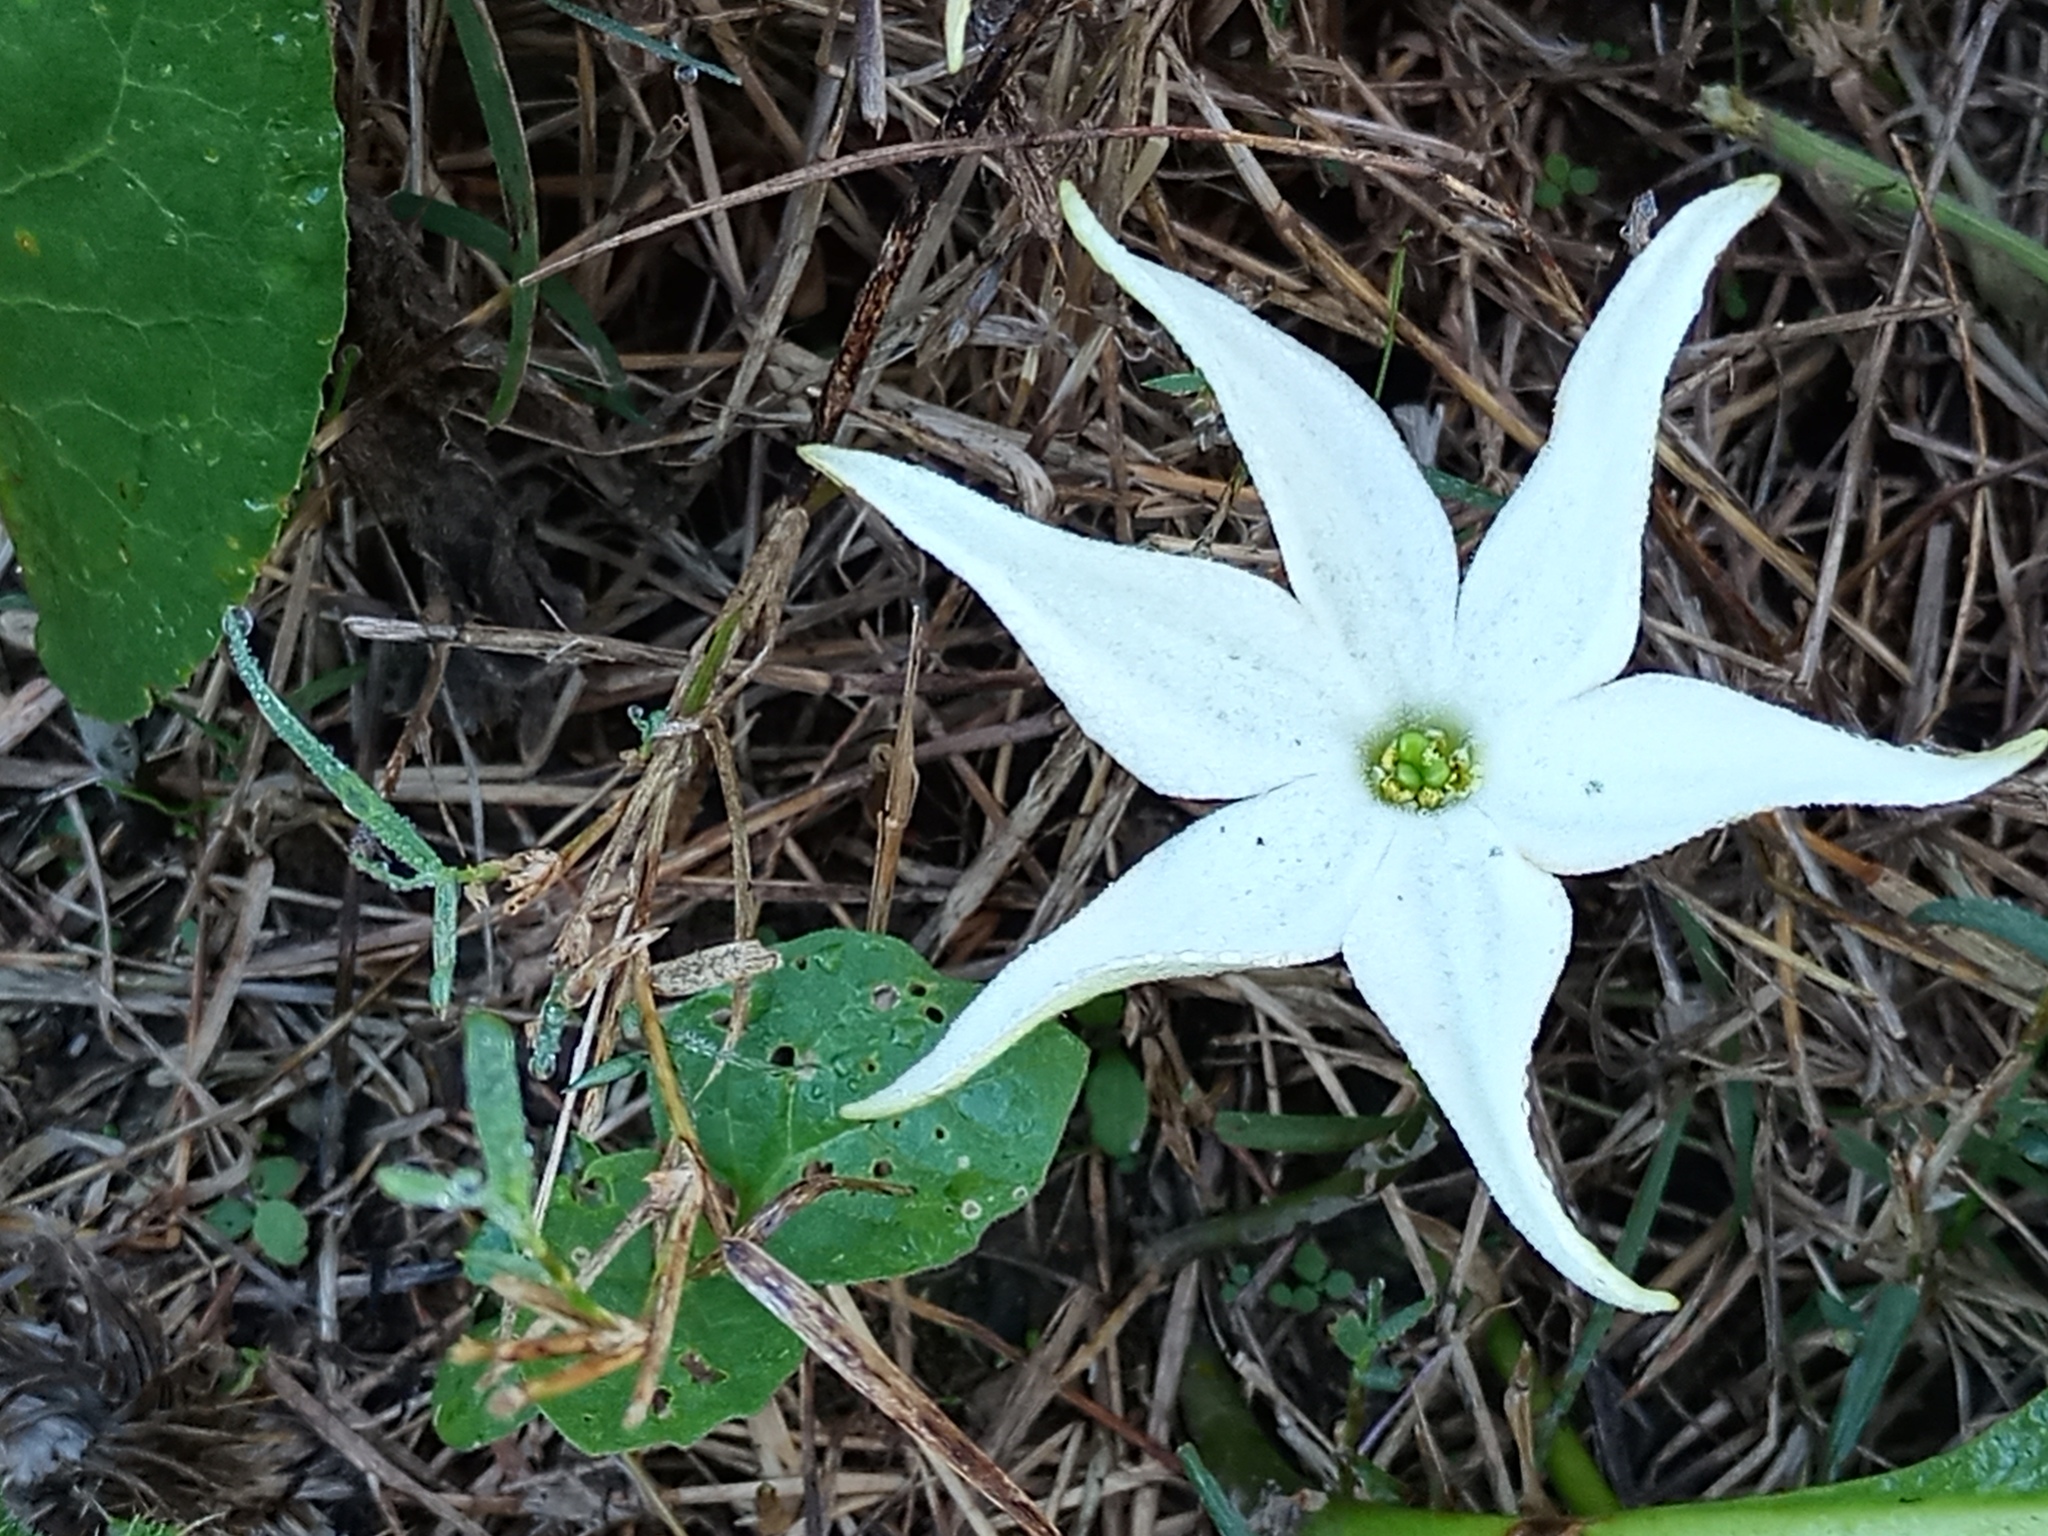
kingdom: Plantae
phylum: Tracheophyta
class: Magnoliopsida
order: Solanales
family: Solanaceae
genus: Jaborosa
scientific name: Jaborosa integrifolia
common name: Springblossom
